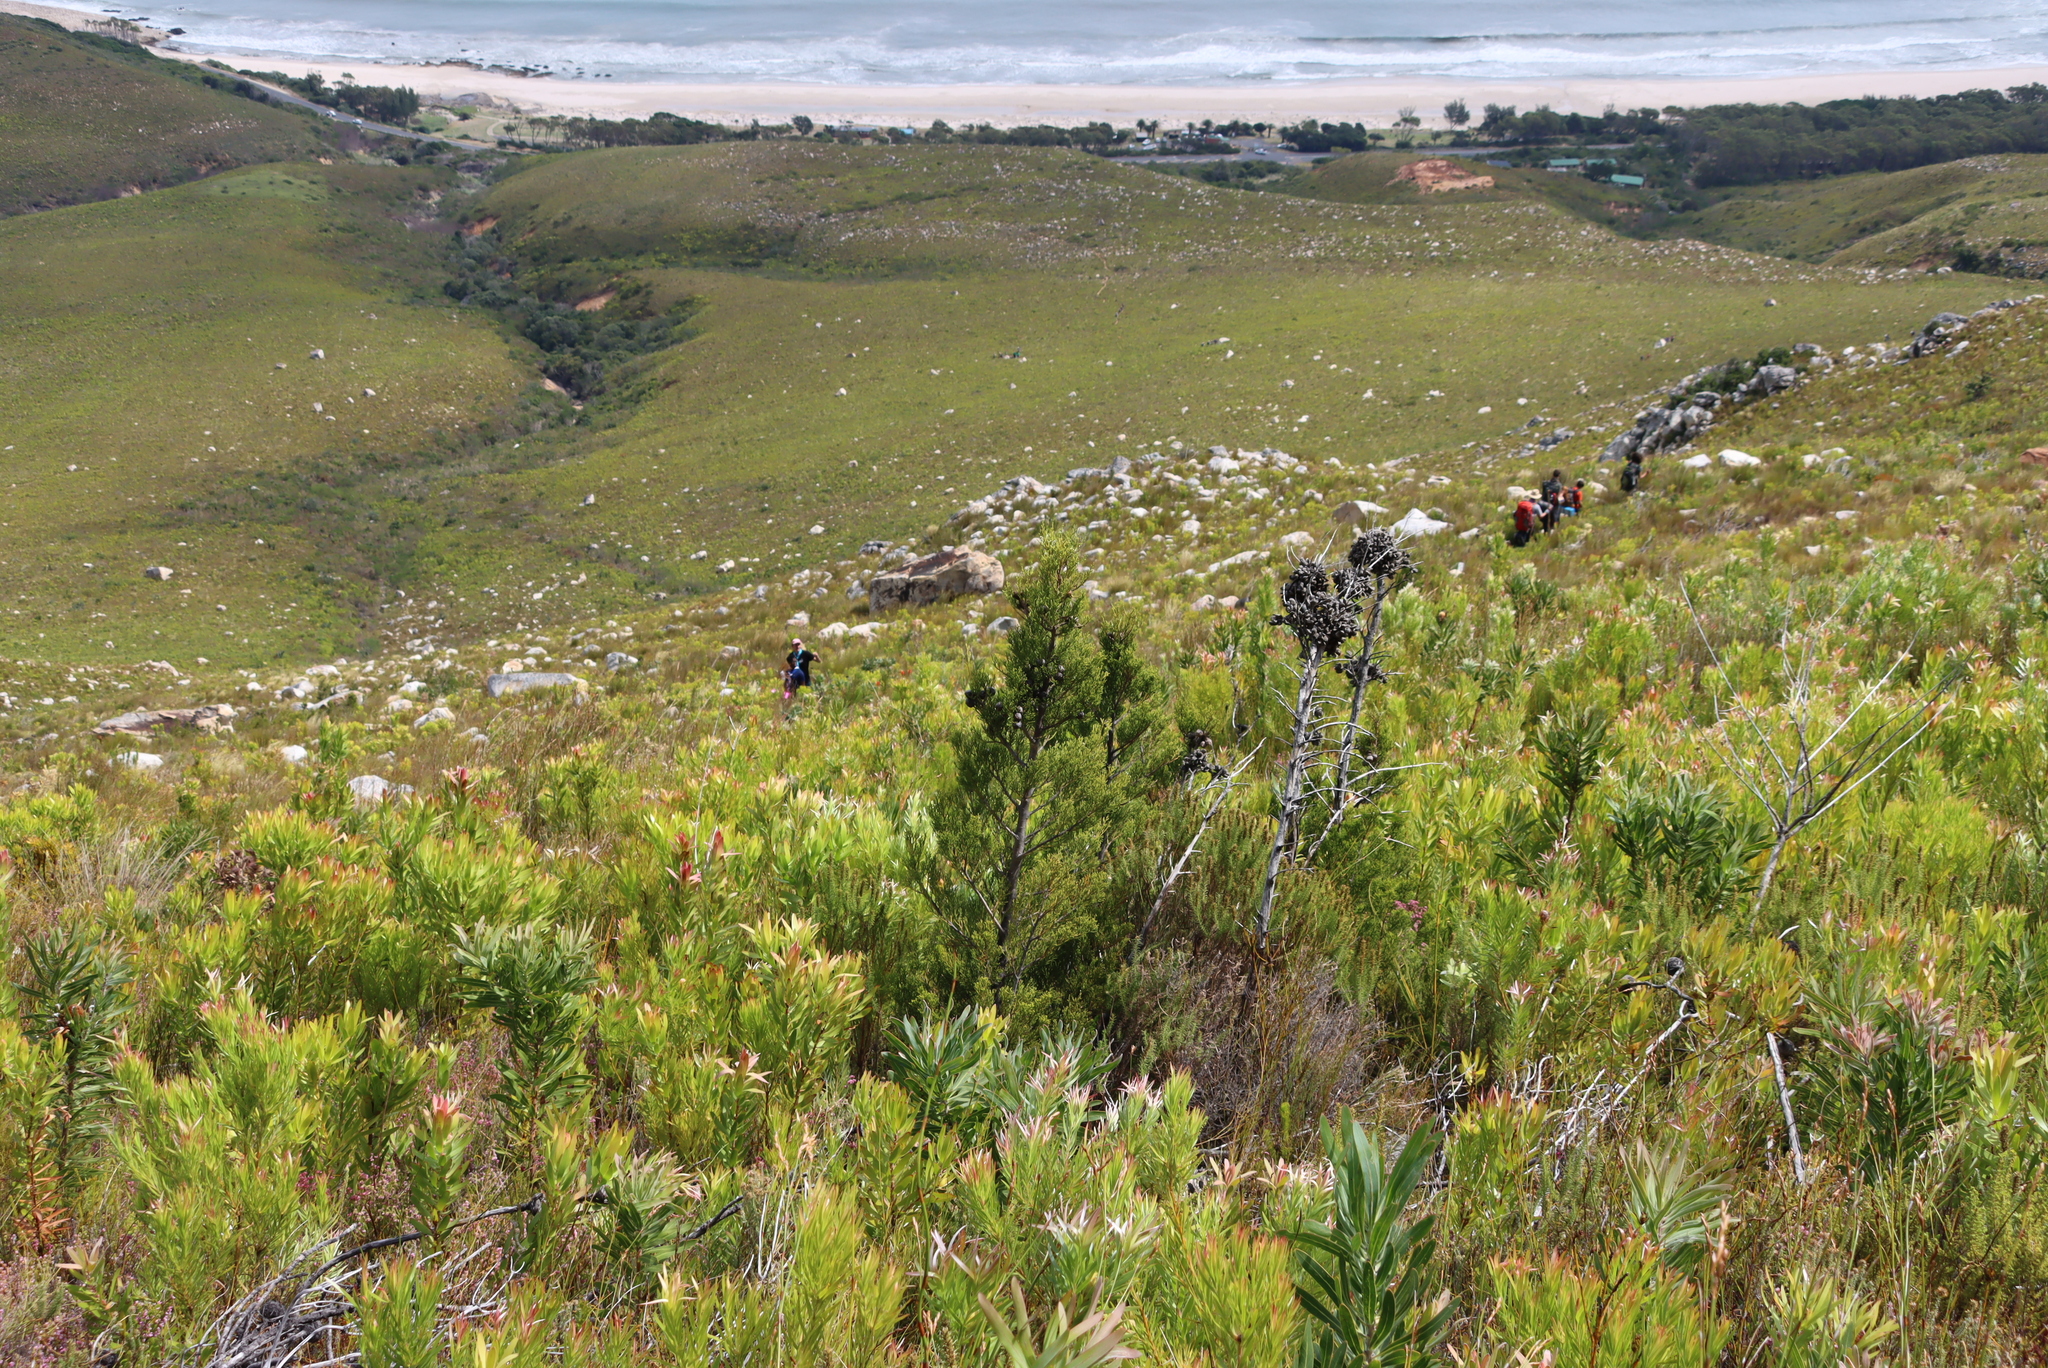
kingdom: Plantae
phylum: Tracheophyta
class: Pinopsida
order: Pinales
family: Cupressaceae
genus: Widdringtonia
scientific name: Widdringtonia nodiflora
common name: Cape cypress
